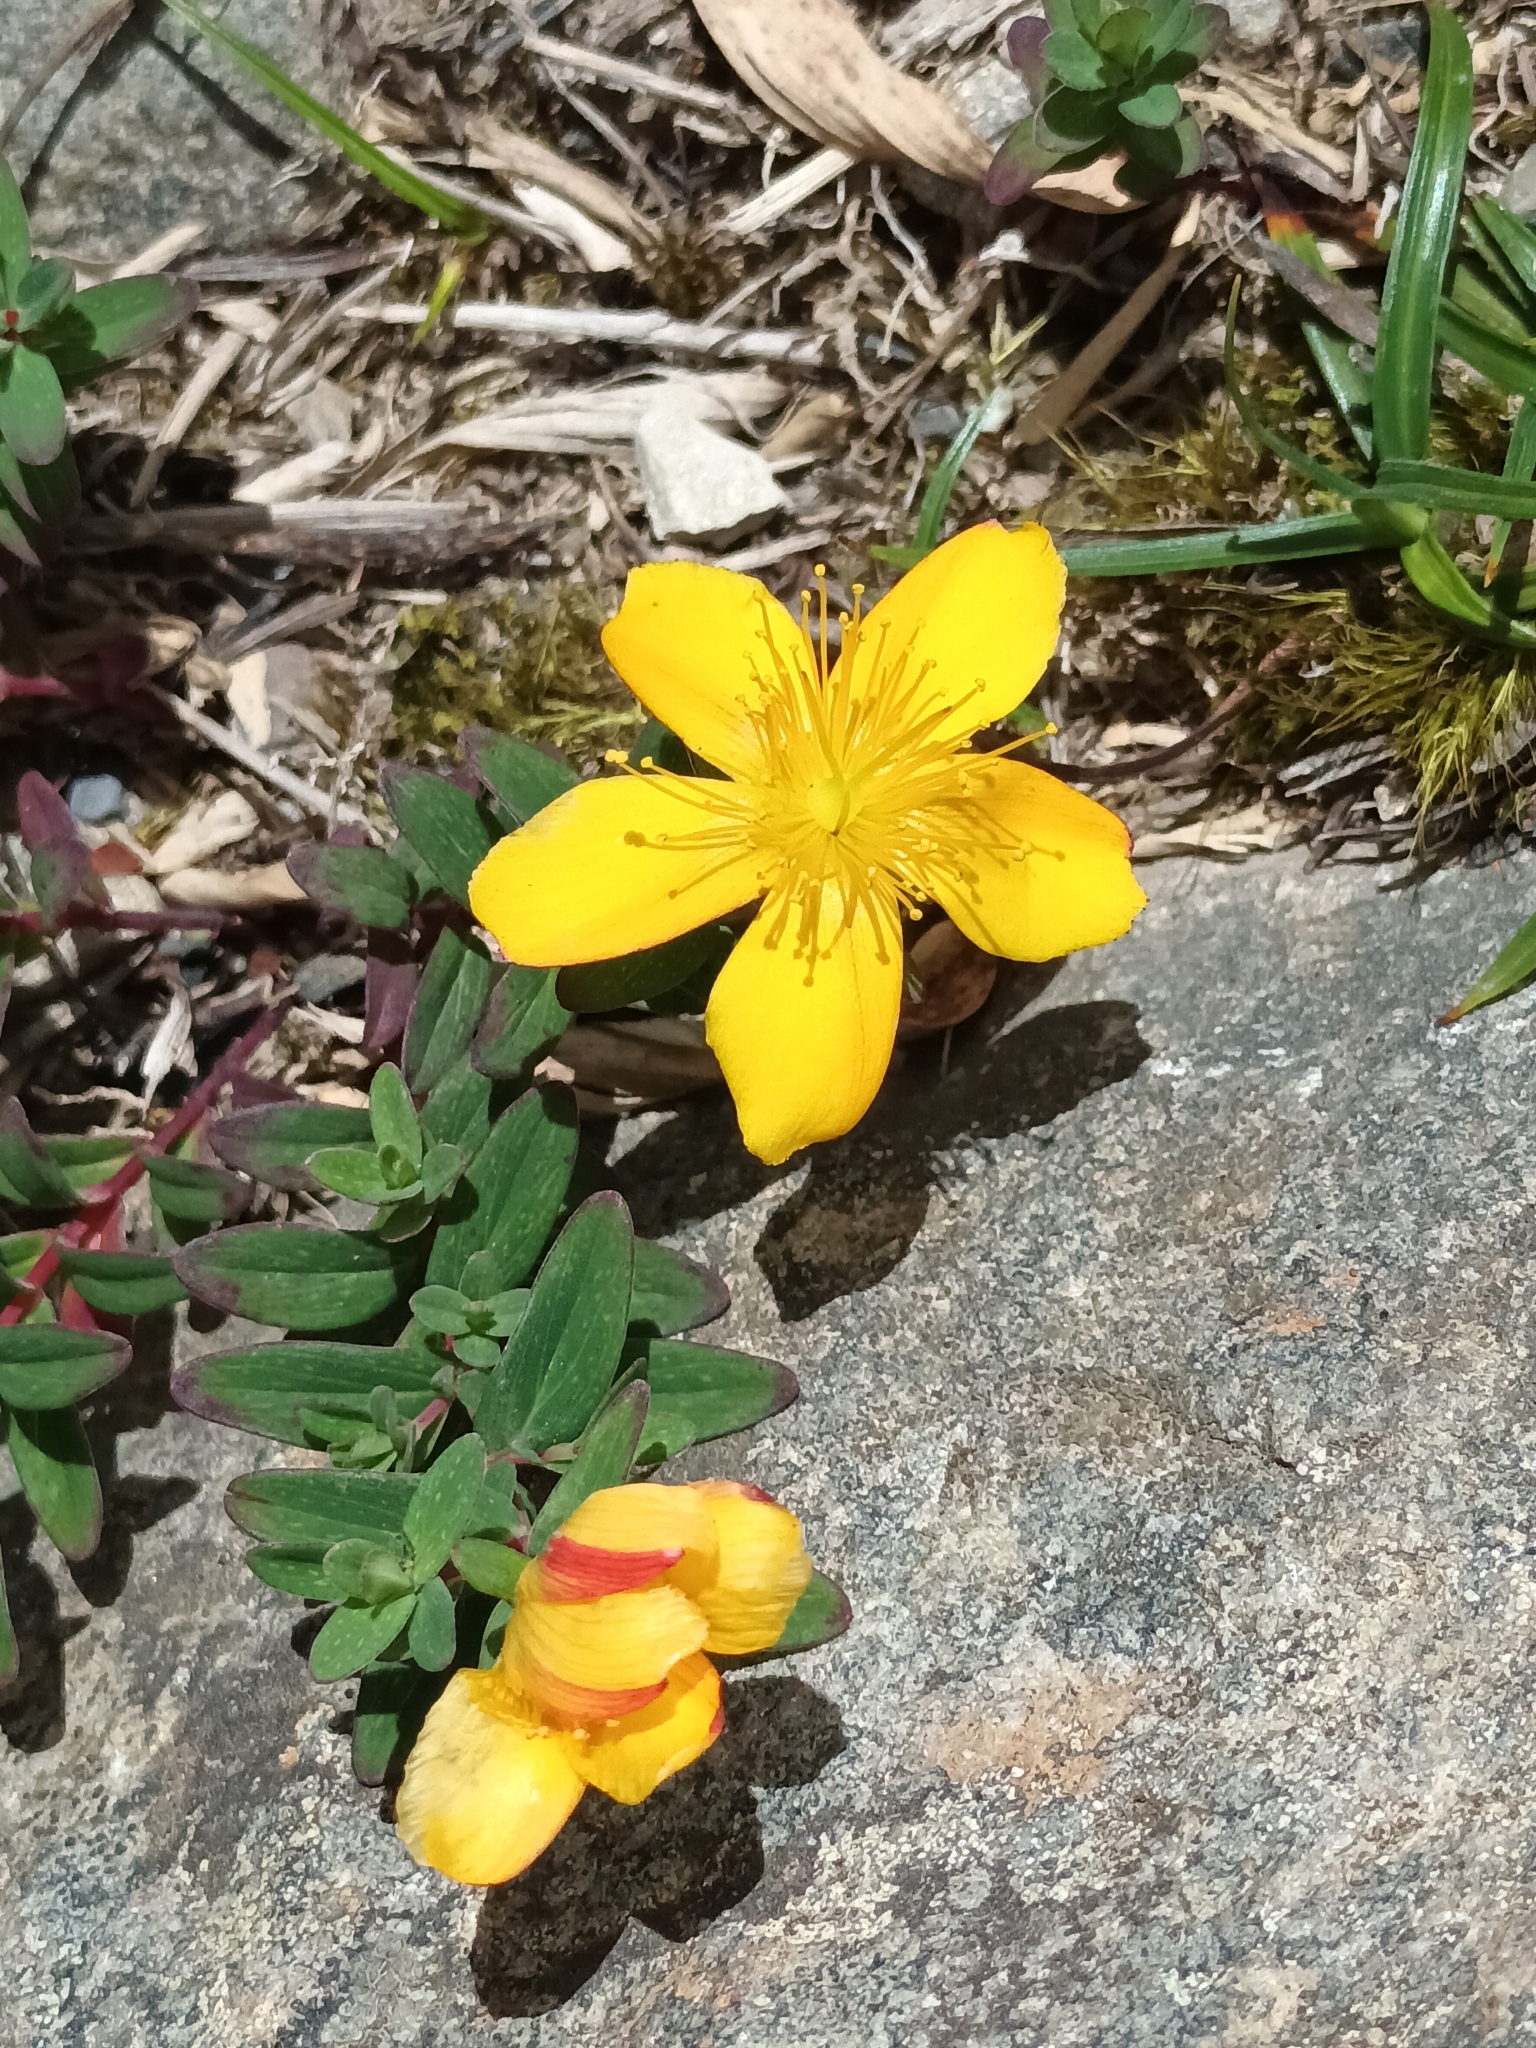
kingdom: Plantae
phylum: Tracheophyta
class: Magnoliopsida
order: Malpighiales
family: Hypericaceae
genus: Hypericum
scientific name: Hypericum nagasawae
